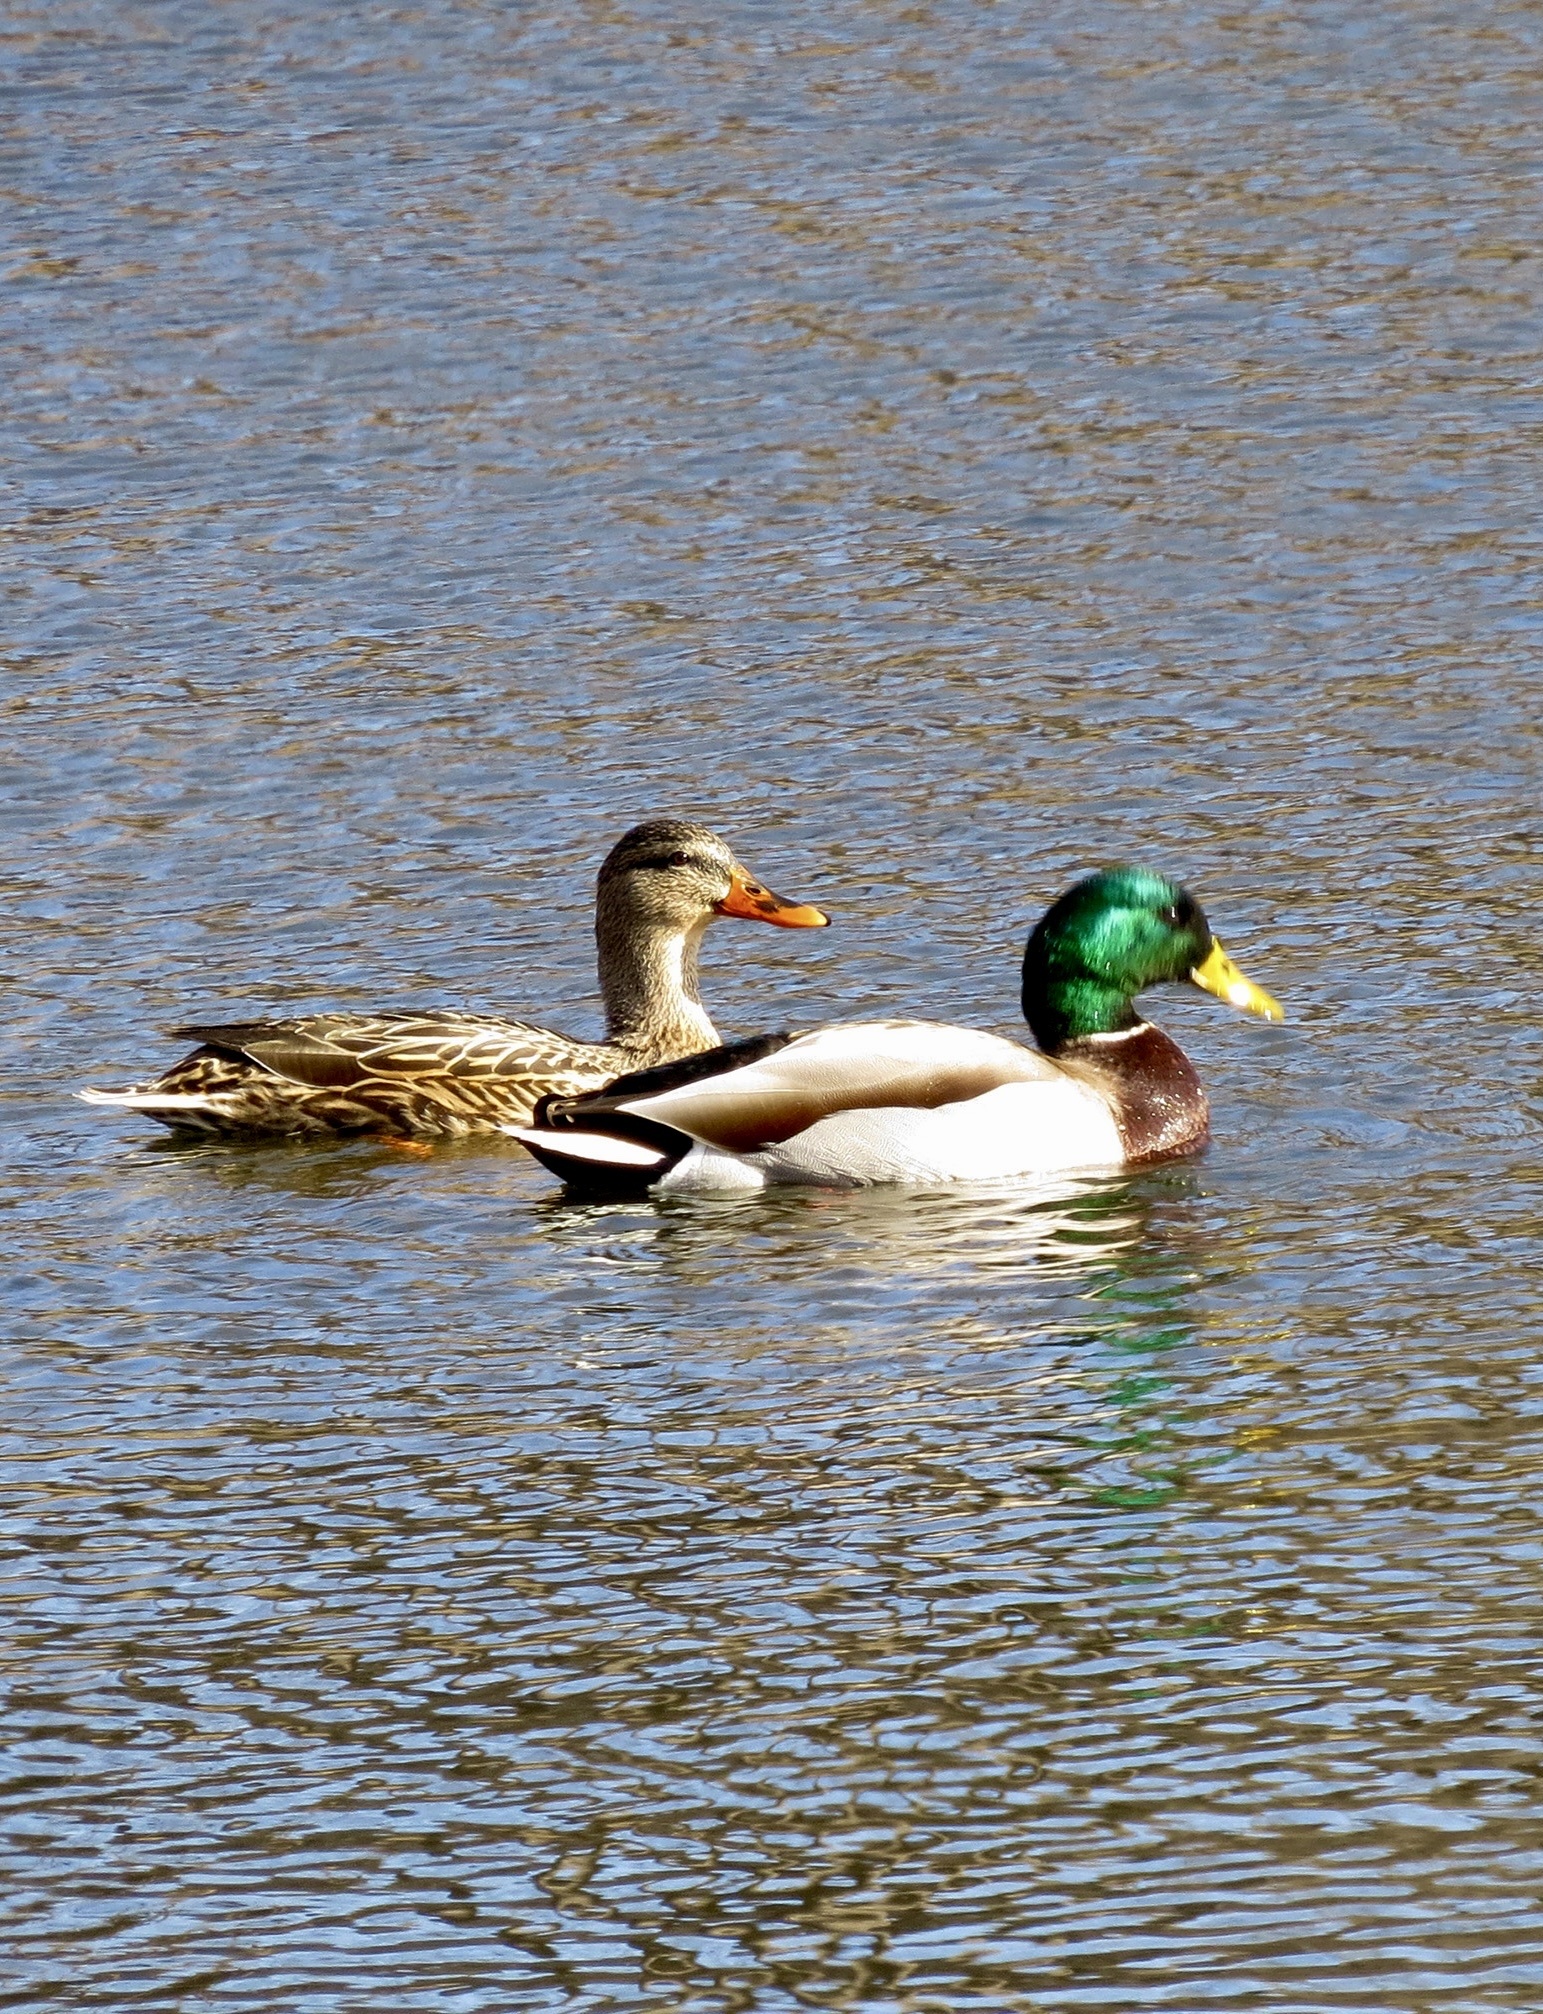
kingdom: Animalia
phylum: Chordata
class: Aves
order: Anseriformes
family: Anatidae
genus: Anas
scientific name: Anas platyrhynchos
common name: Mallard
